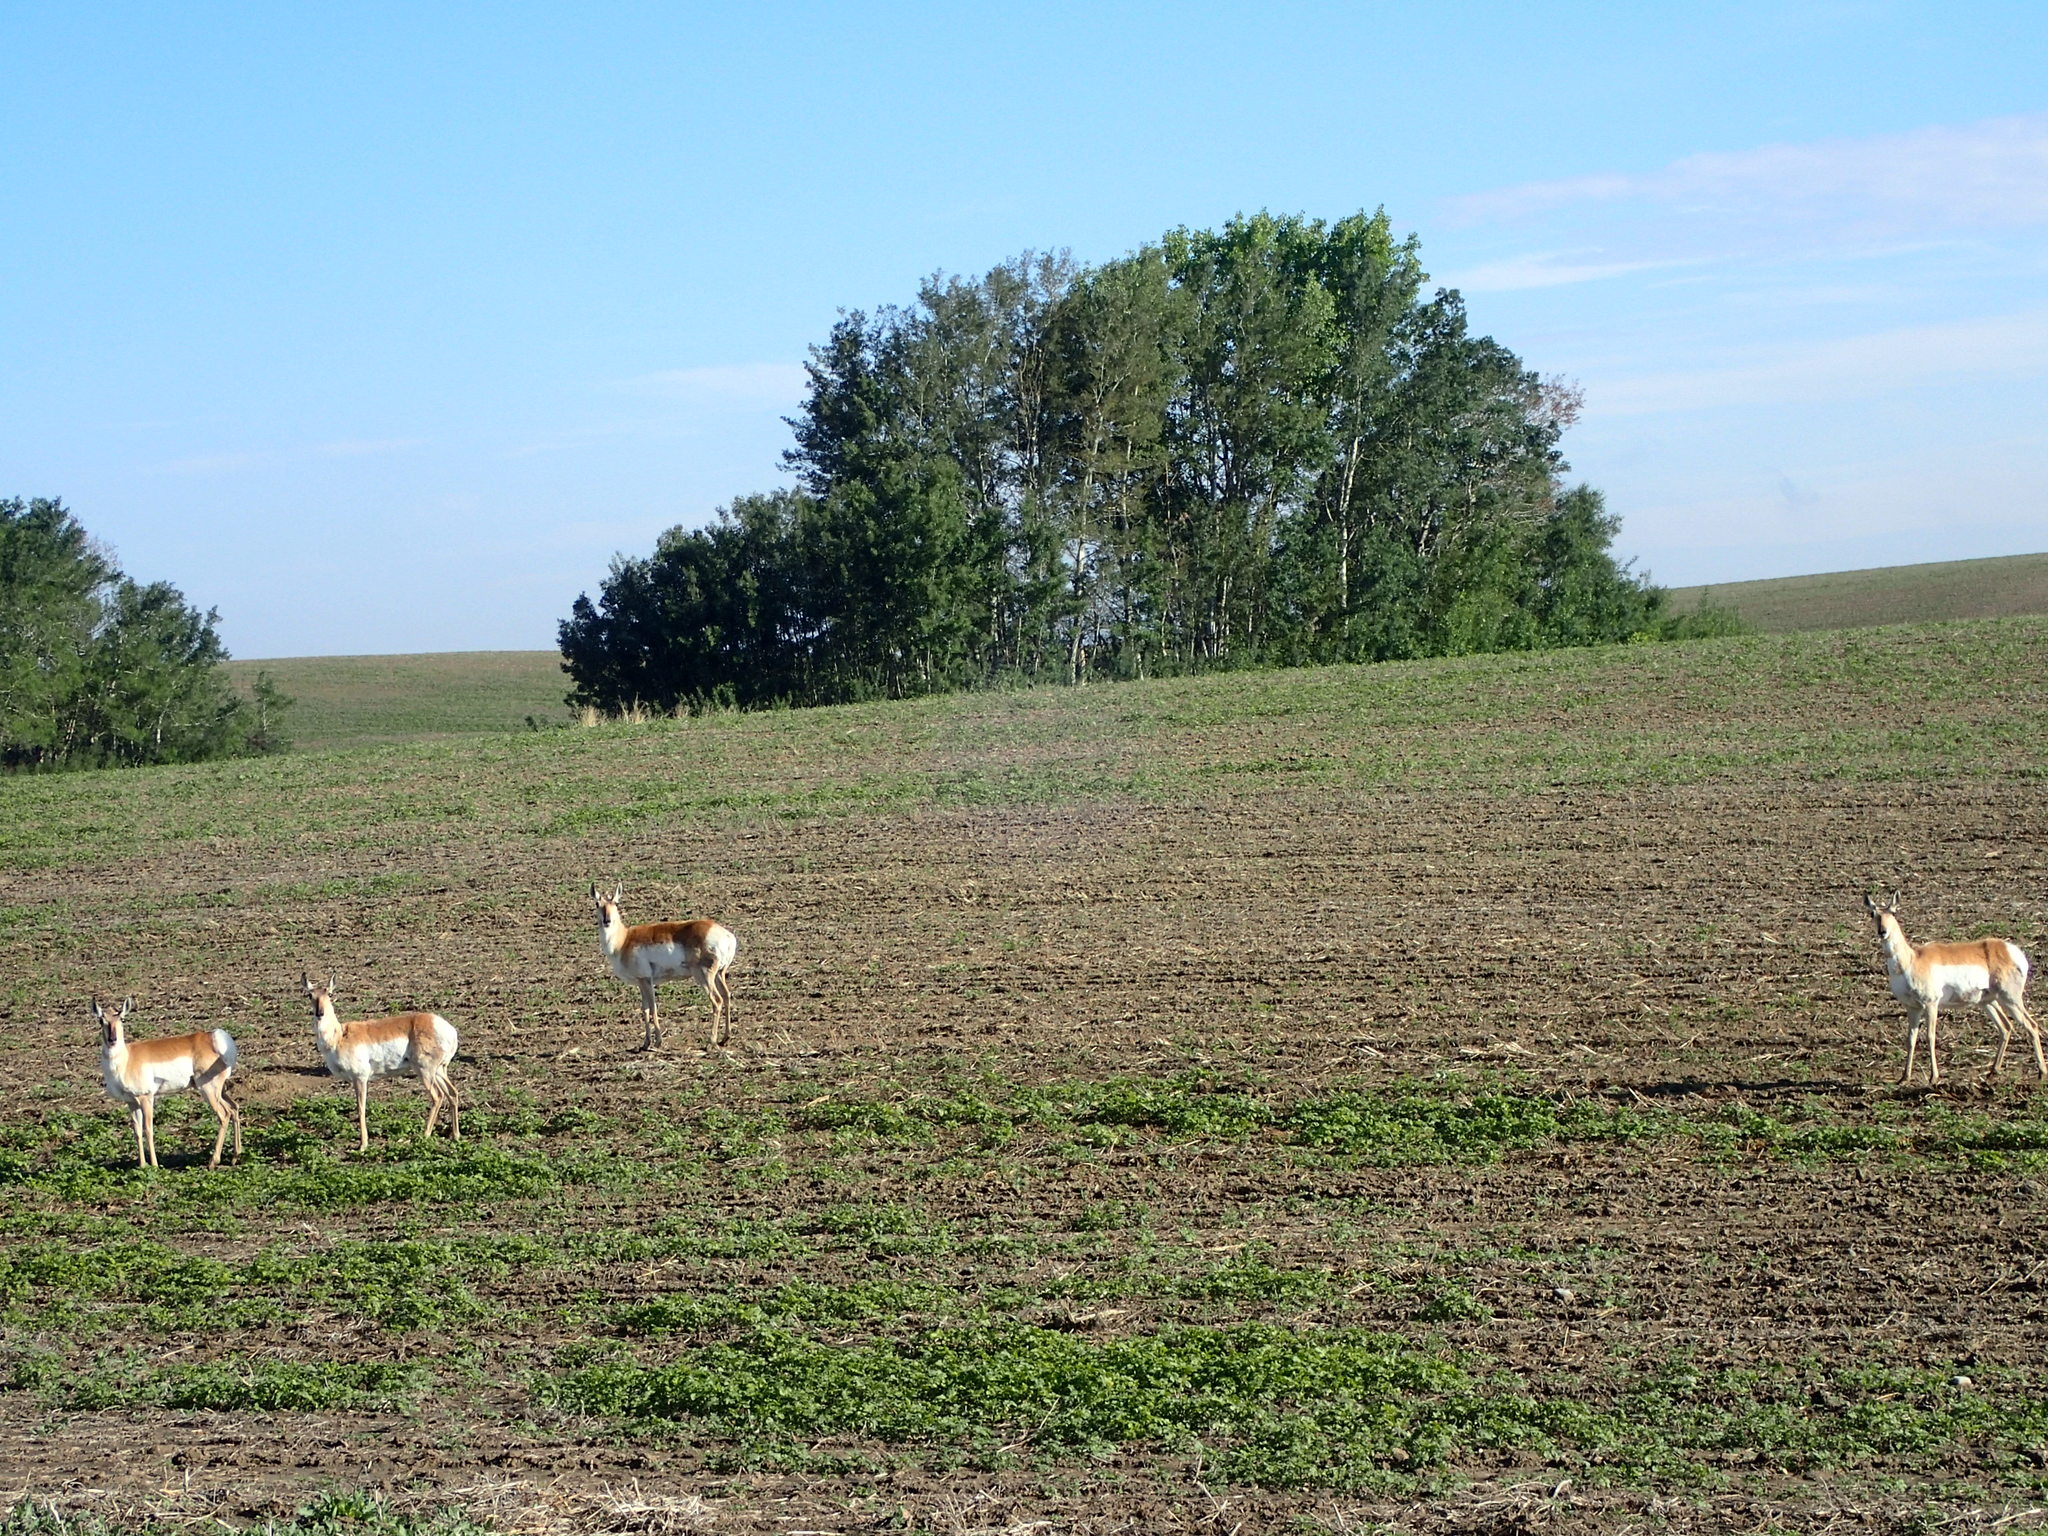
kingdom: Animalia
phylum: Chordata
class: Mammalia
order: Artiodactyla
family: Antilocapridae
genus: Antilocapra
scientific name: Antilocapra americana
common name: Pronghorn
